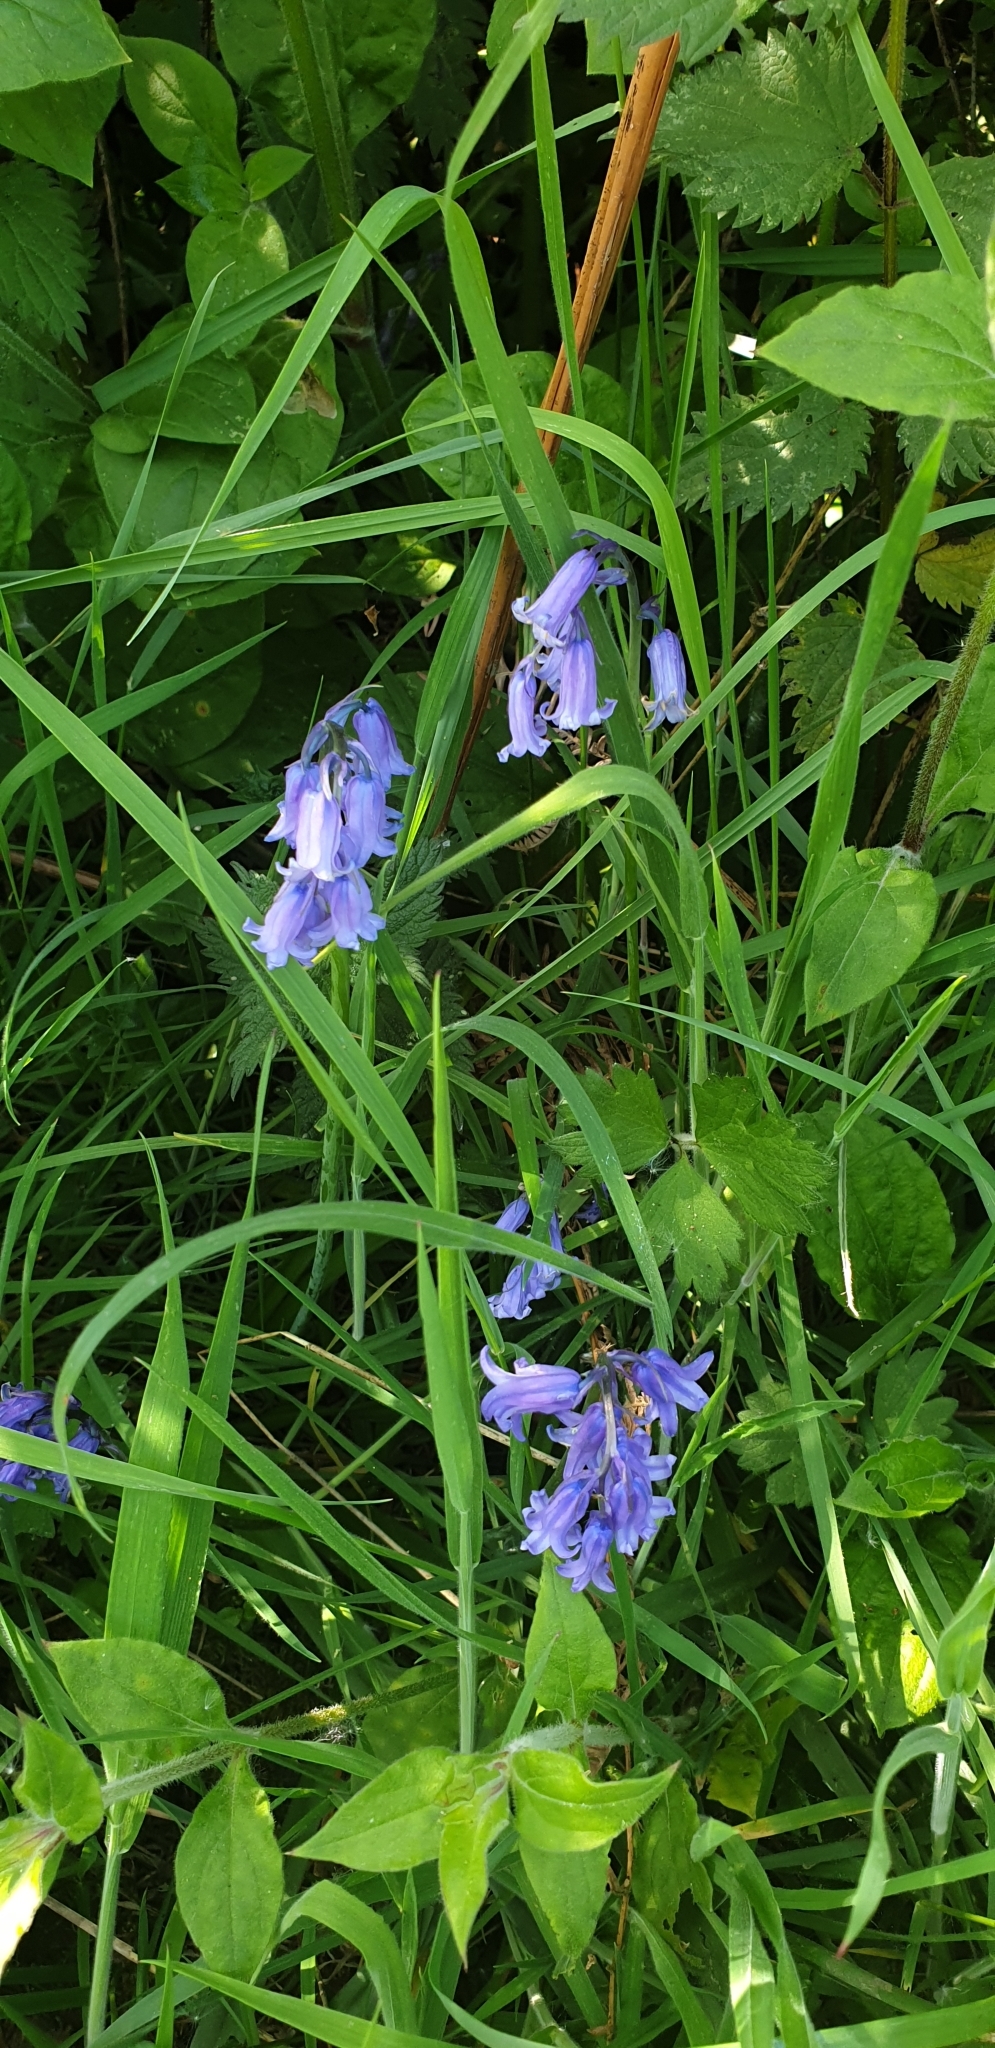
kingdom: Plantae
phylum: Tracheophyta
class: Liliopsida
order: Asparagales
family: Asparagaceae
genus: Hyacinthoides
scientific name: Hyacinthoides non-scripta
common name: Bluebell
